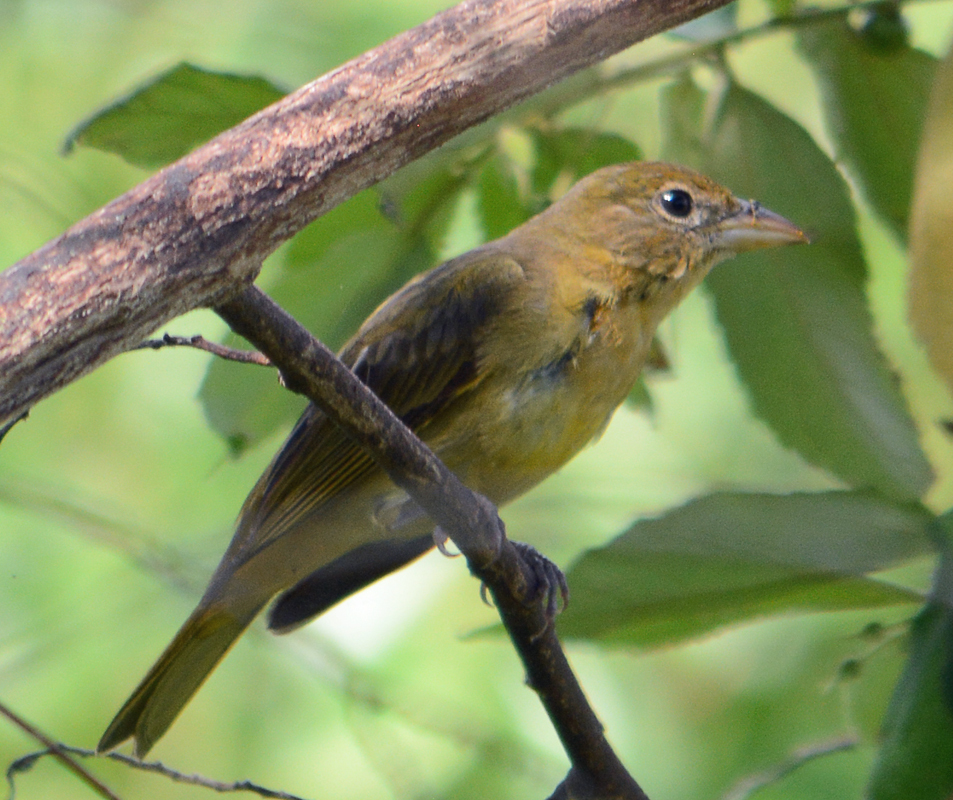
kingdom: Animalia
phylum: Chordata
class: Aves
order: Passeriformes
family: Cardinalidae
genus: Piranga
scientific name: Piranga rubra
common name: Summer tanager
